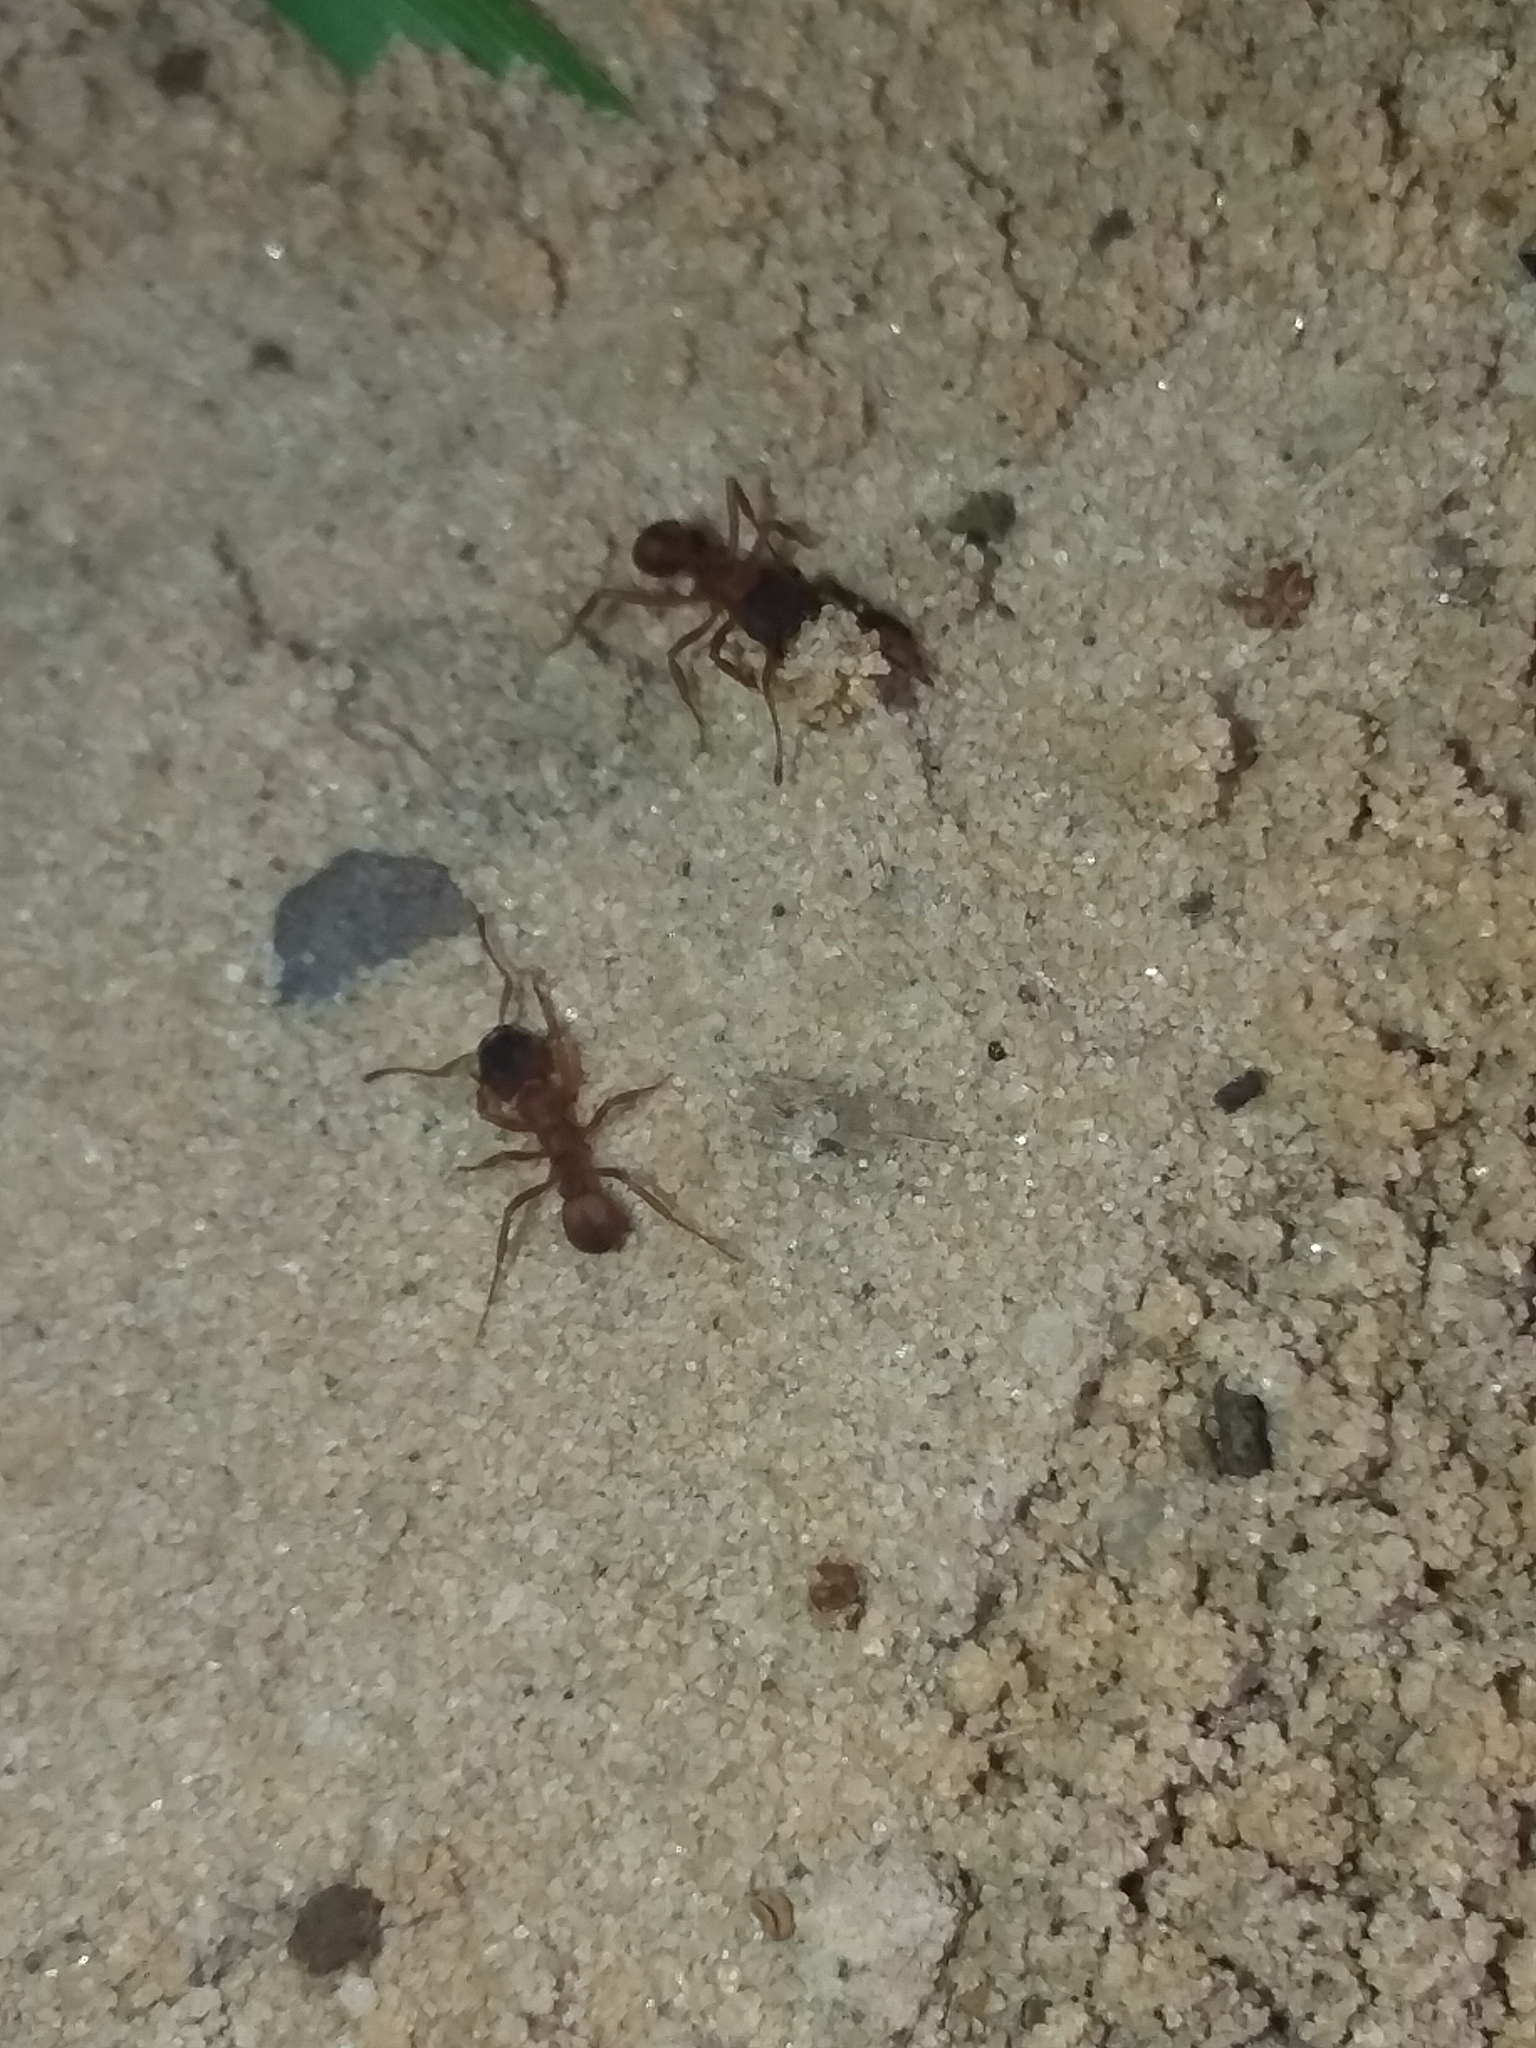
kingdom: Animalia
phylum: Arthropoda
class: Insecta
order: Hymenoptera
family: Formicidae
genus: Trachymyrmex
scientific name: Trachymyrmex septentrionalis
